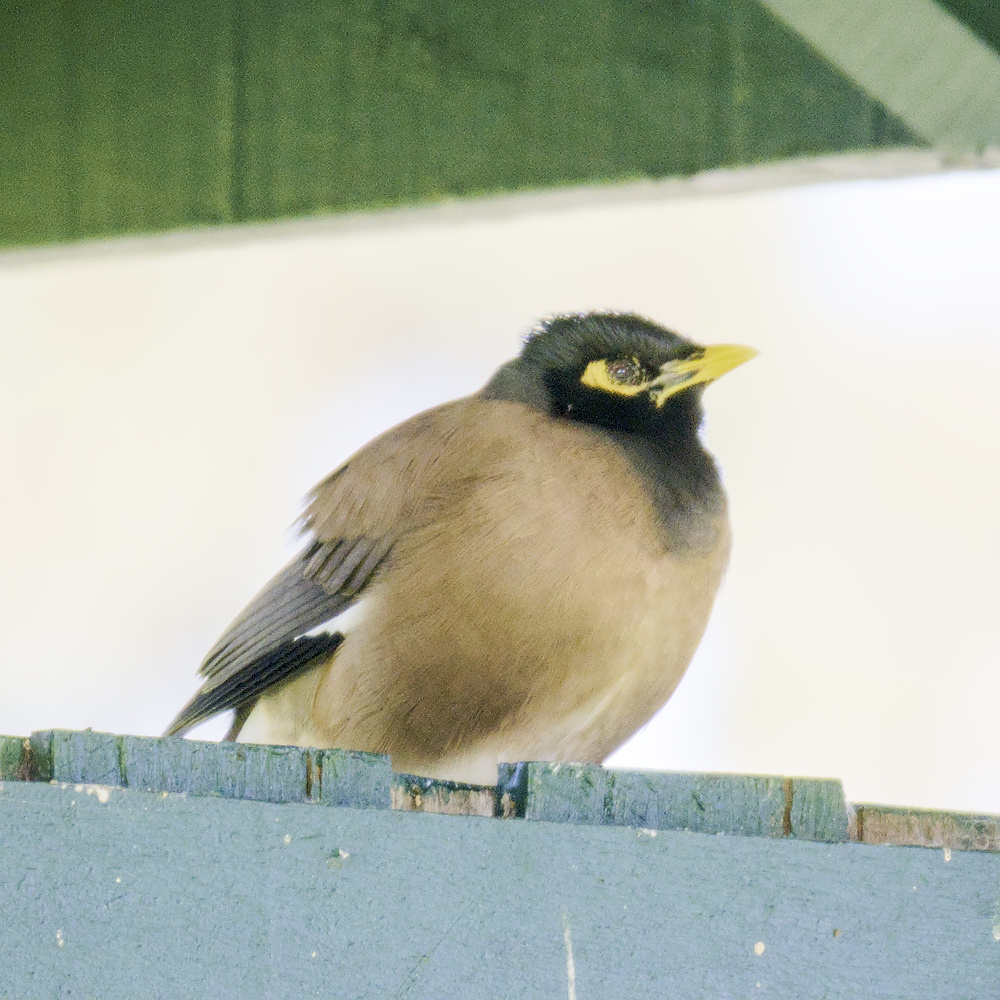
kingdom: Animalia
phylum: Chordata
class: Aves
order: Passeriformes
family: Sturnidae
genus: Acridotheres
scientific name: Acridotheres tristis
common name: Common myna
